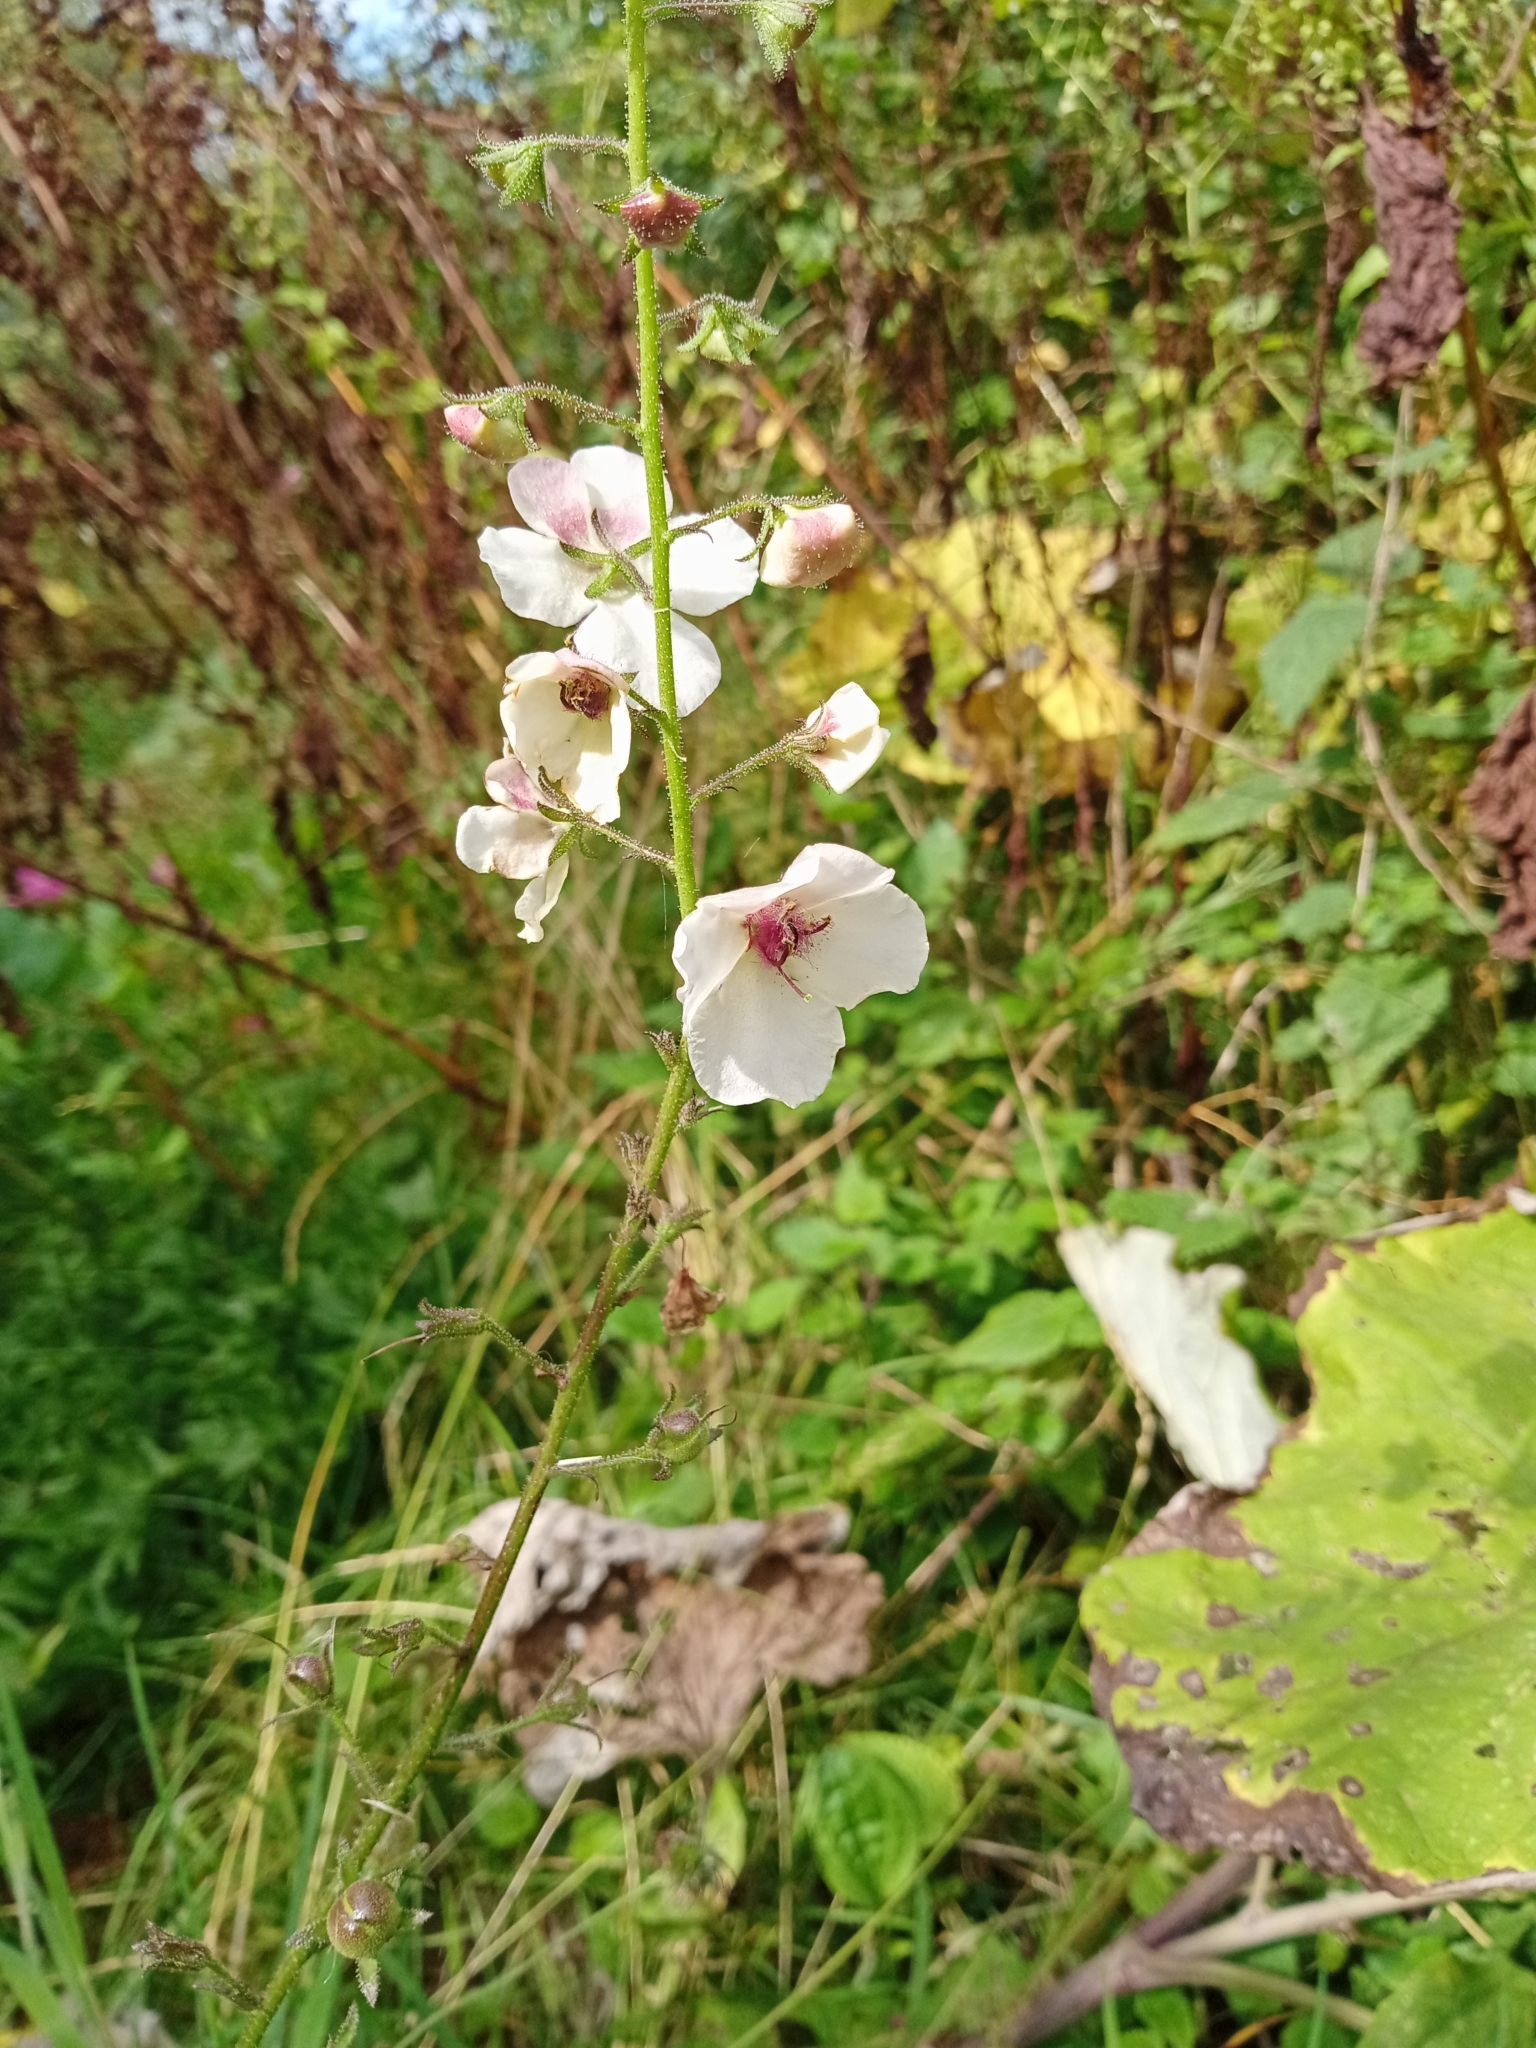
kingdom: Plantae
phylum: Tracheophyta
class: Magnoliopsida
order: Lamiales
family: Scrophulariaceae
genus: Verbascum
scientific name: Verbascum blattaria
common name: Moth mullein
